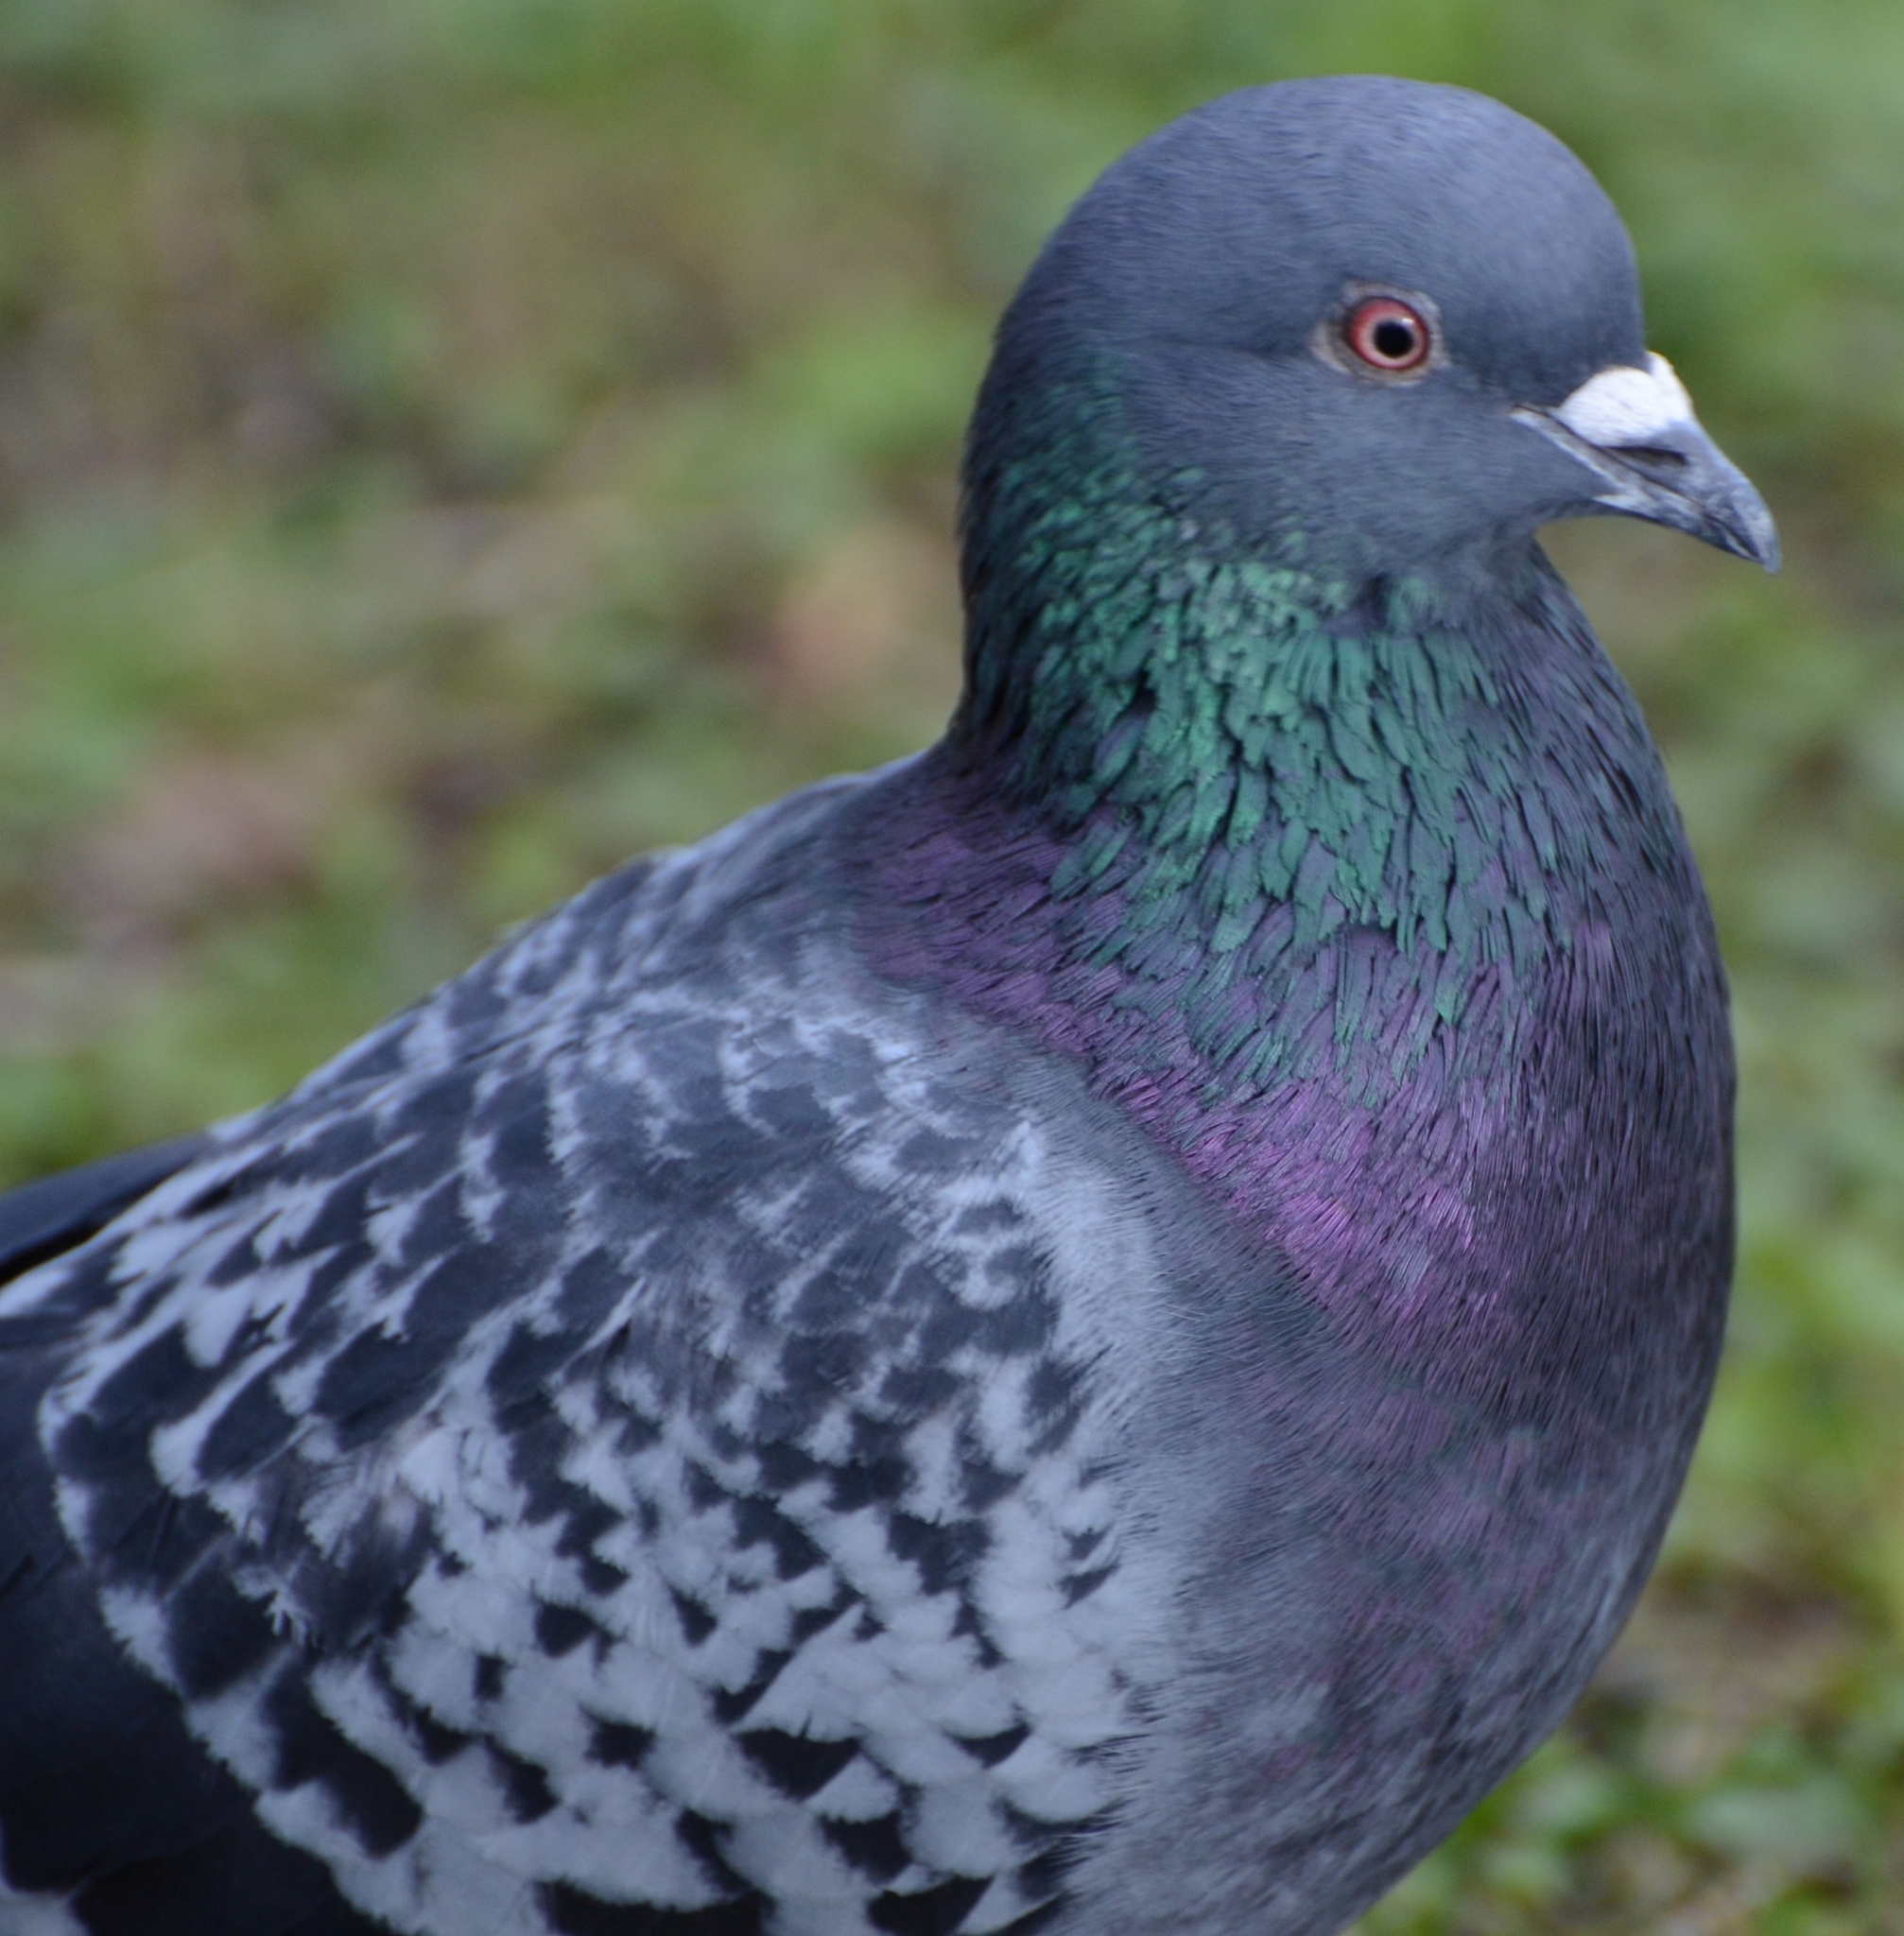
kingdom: Animalia
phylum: Chordata
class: Aves
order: Columbiformes
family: Columbidae
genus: Columba
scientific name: Columba livia
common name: Rock pigeon
